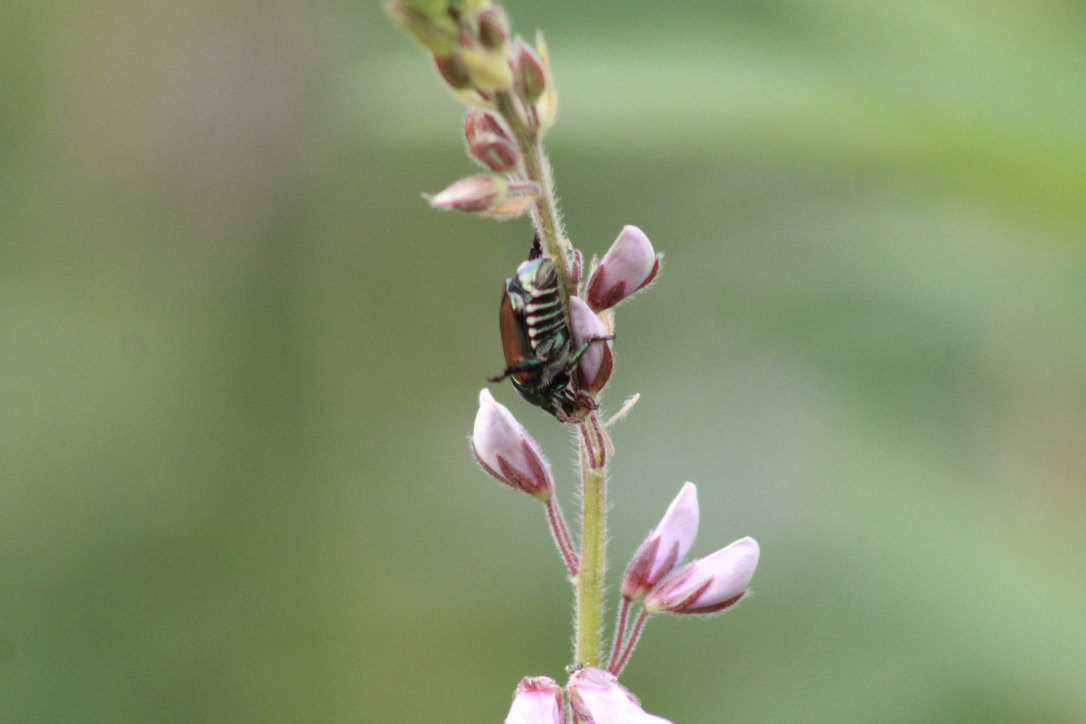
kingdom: Animalia
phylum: Arthropoda
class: Insecta
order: Coleoptera
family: Scarabaeidae
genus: Popillia
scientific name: Popillia japonica
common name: Japanese beetle
